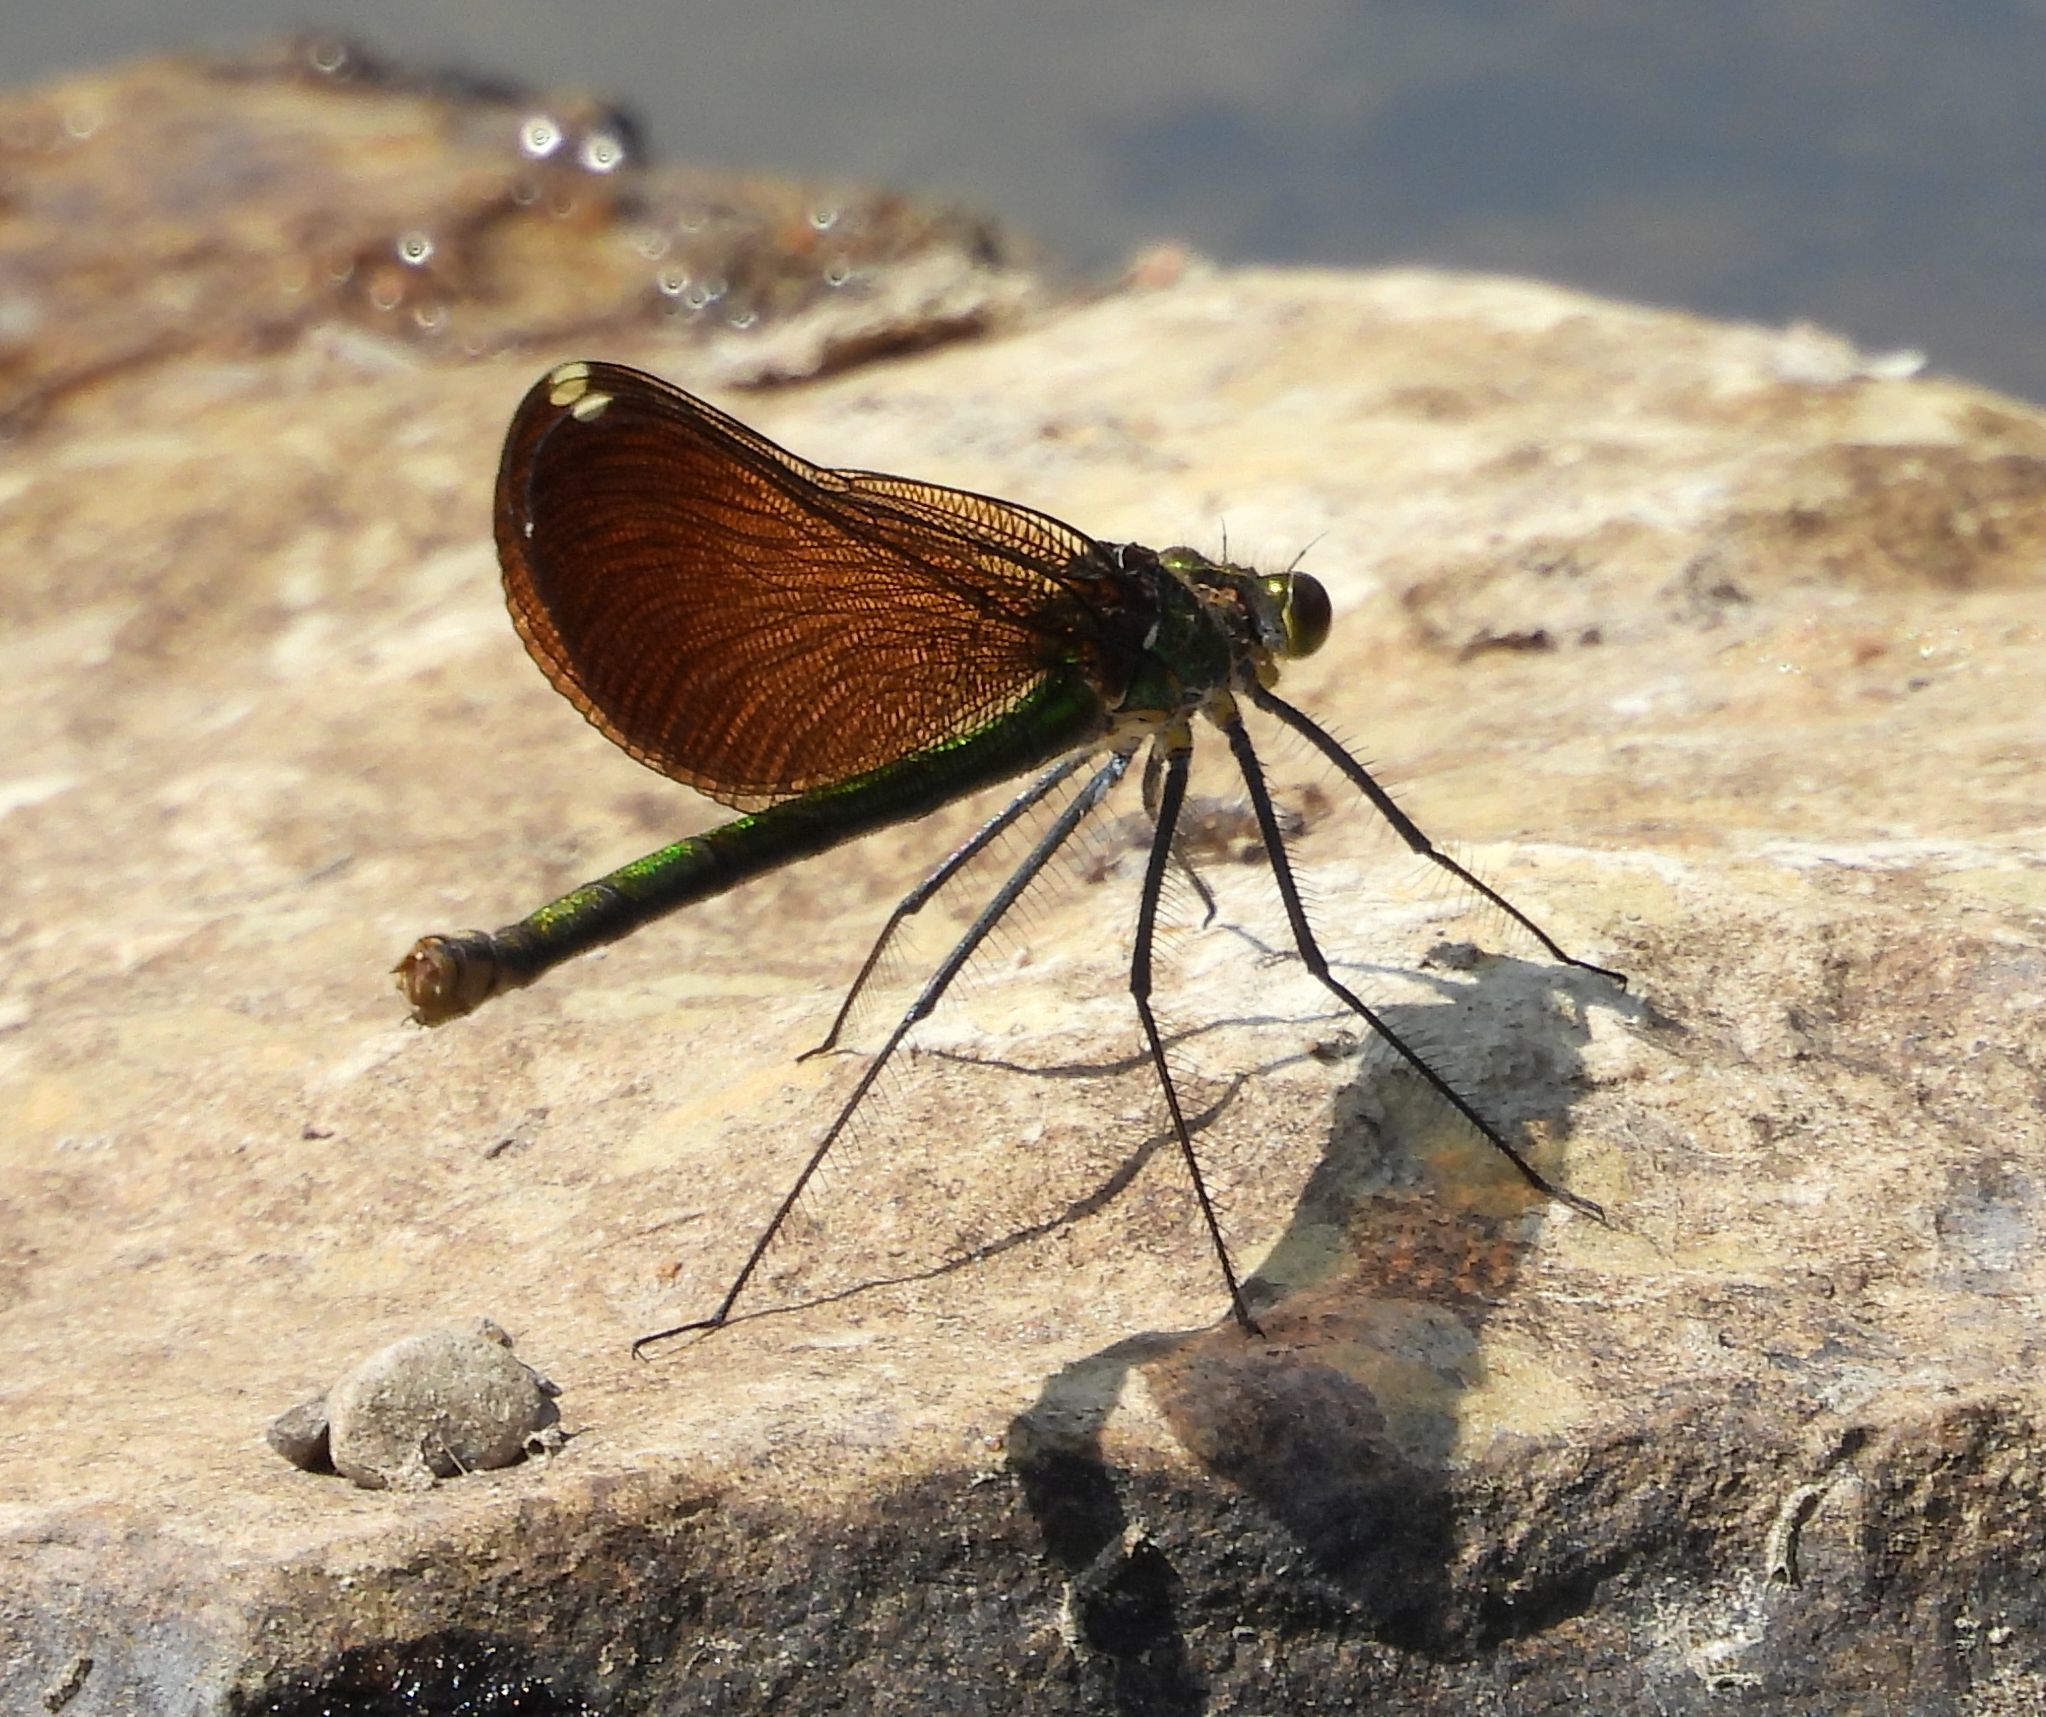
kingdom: Animalia
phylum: Arthropoda
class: Insecta
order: Odonata
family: Calopterygidae
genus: Calopteryx
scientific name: Calopteryx aequabilis
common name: River jewelwing
